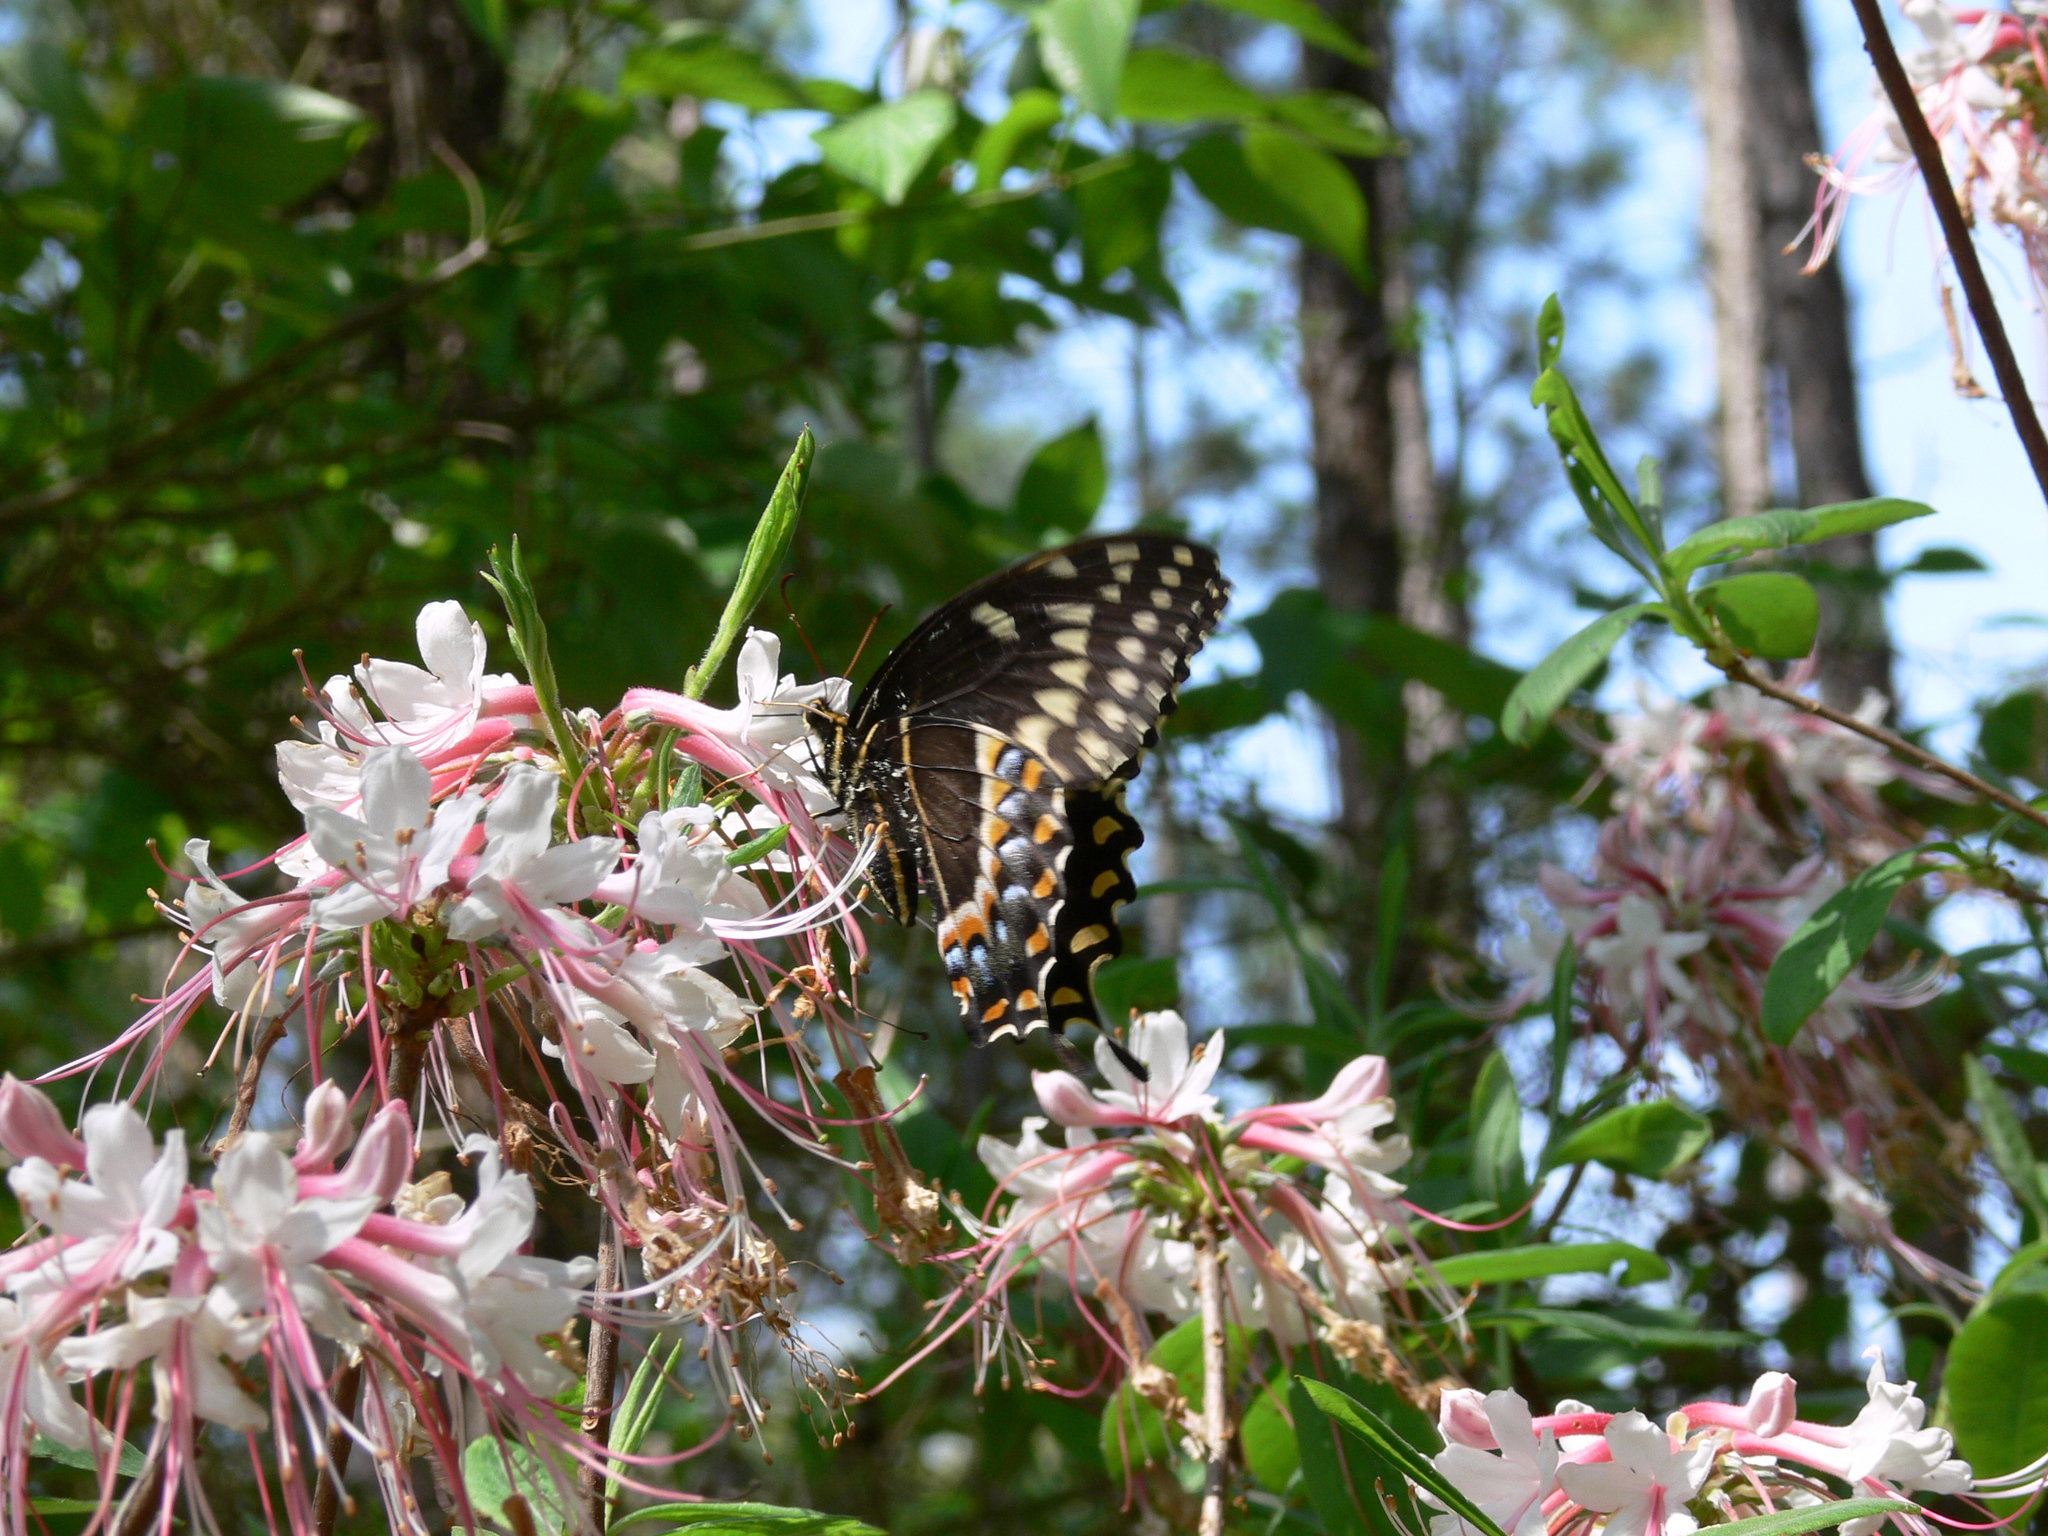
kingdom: Animalia
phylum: Arthropoda
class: Insecta
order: Lepidoptera
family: Papilionidae
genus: Papilio
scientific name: Papilio palamedes
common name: Palamedes swallowtail
